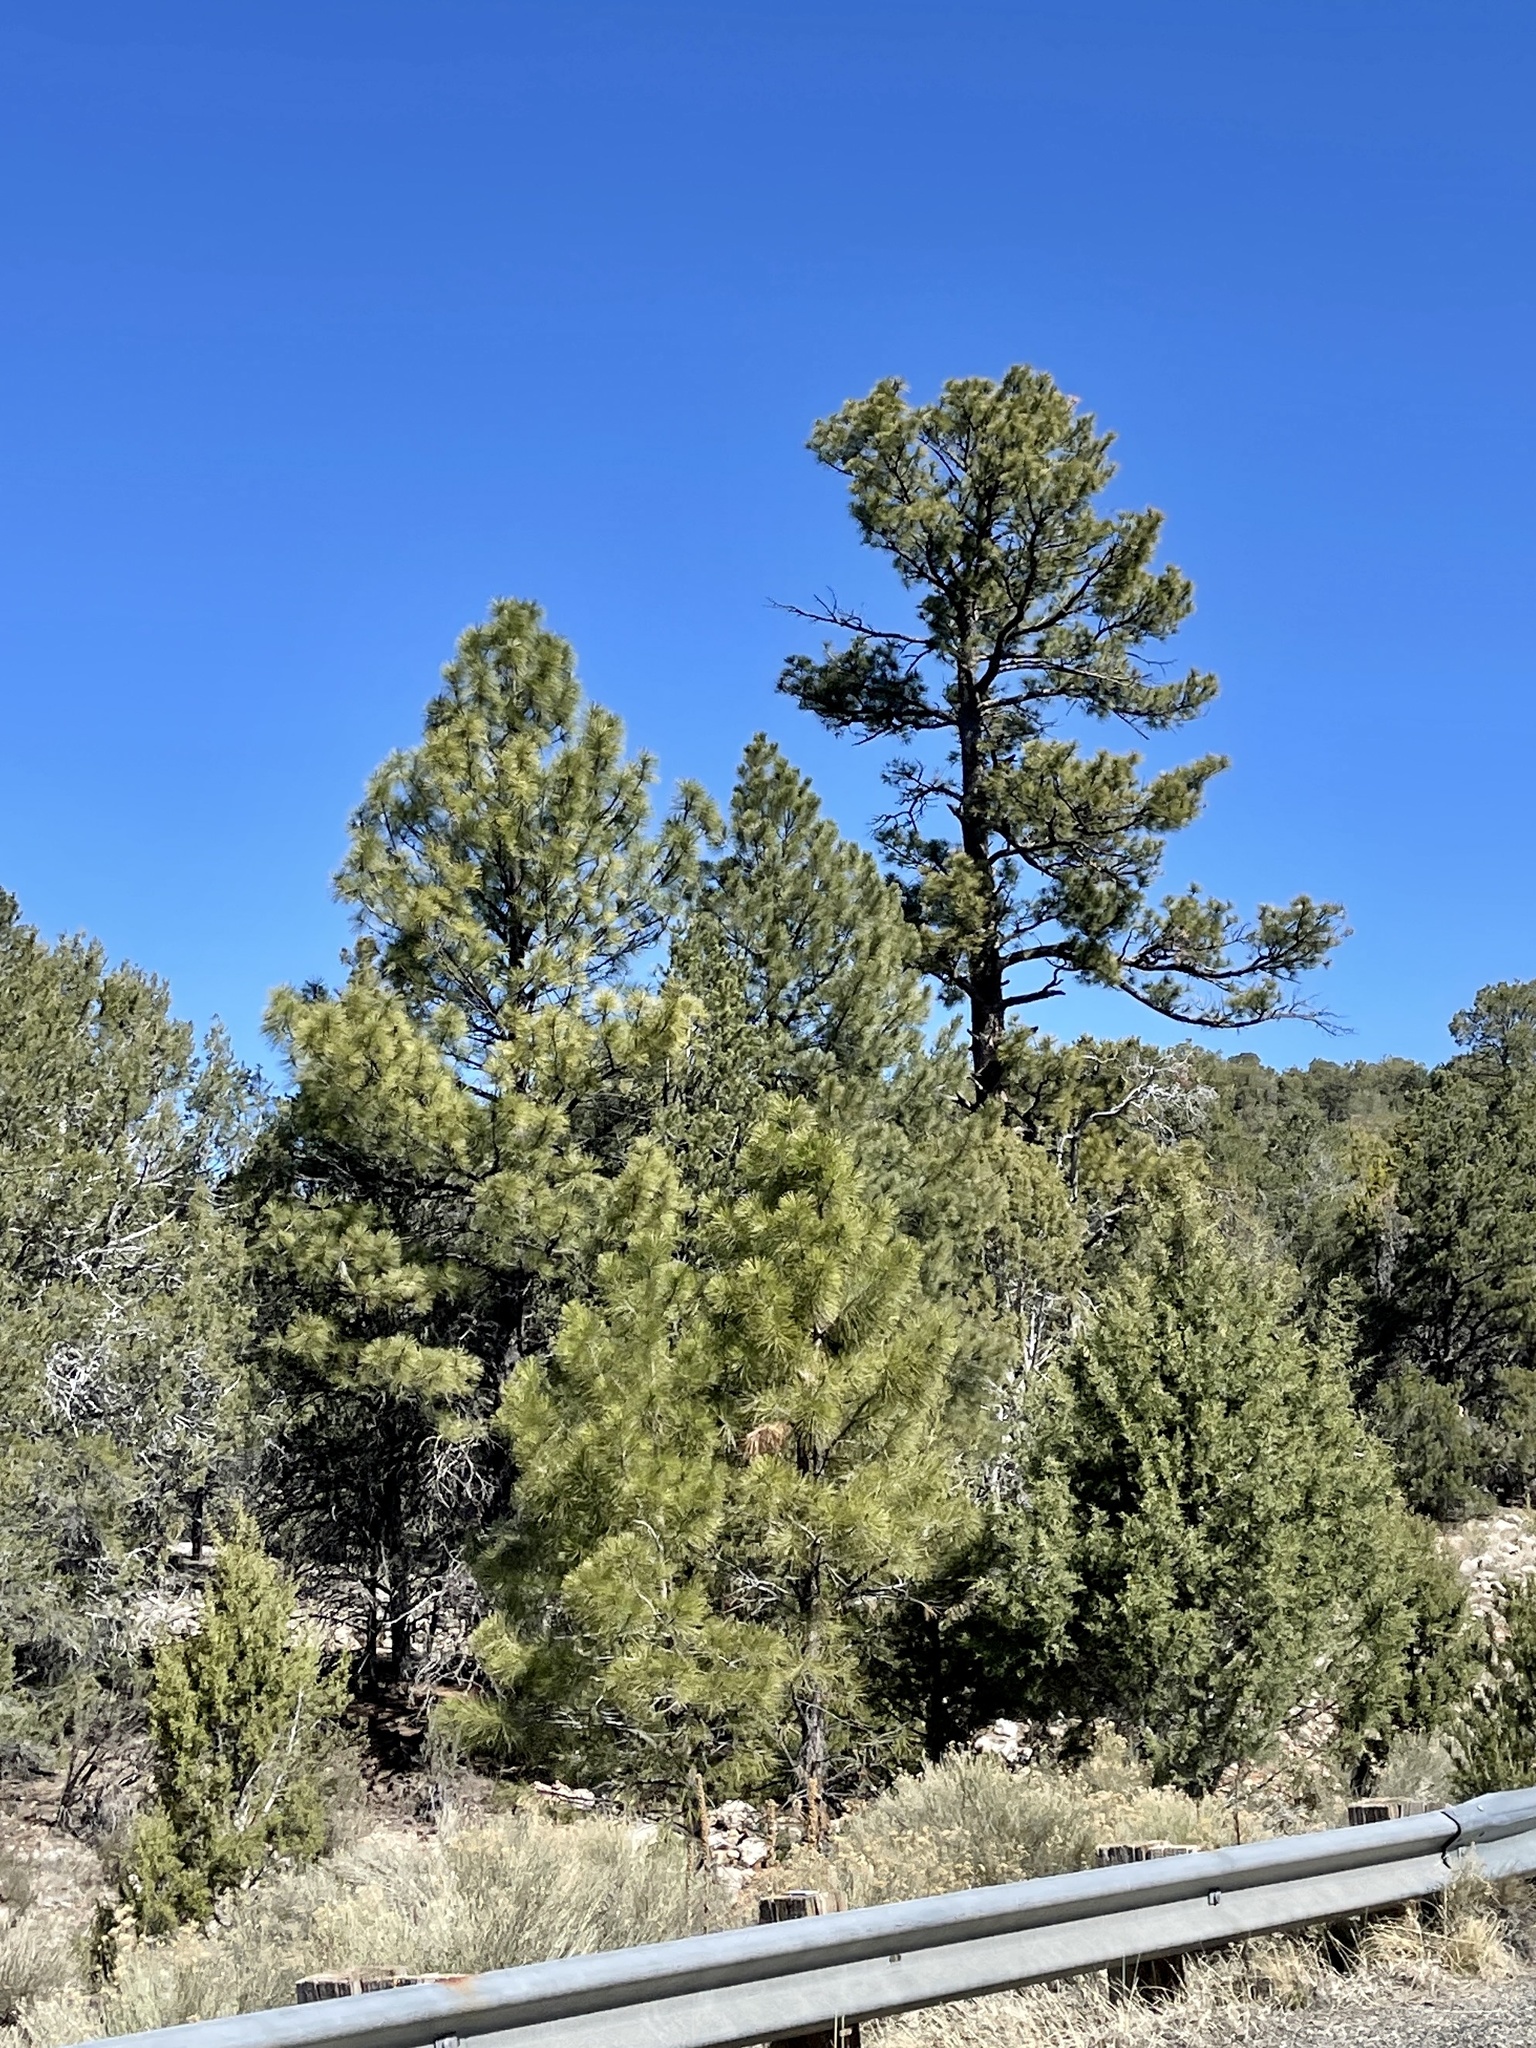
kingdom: Plantae
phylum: Tracheophyta
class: Pinopsida
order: Pinales
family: Pinaceae
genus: Pinus
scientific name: Pinus ponderosa
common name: Western yellow-pine
